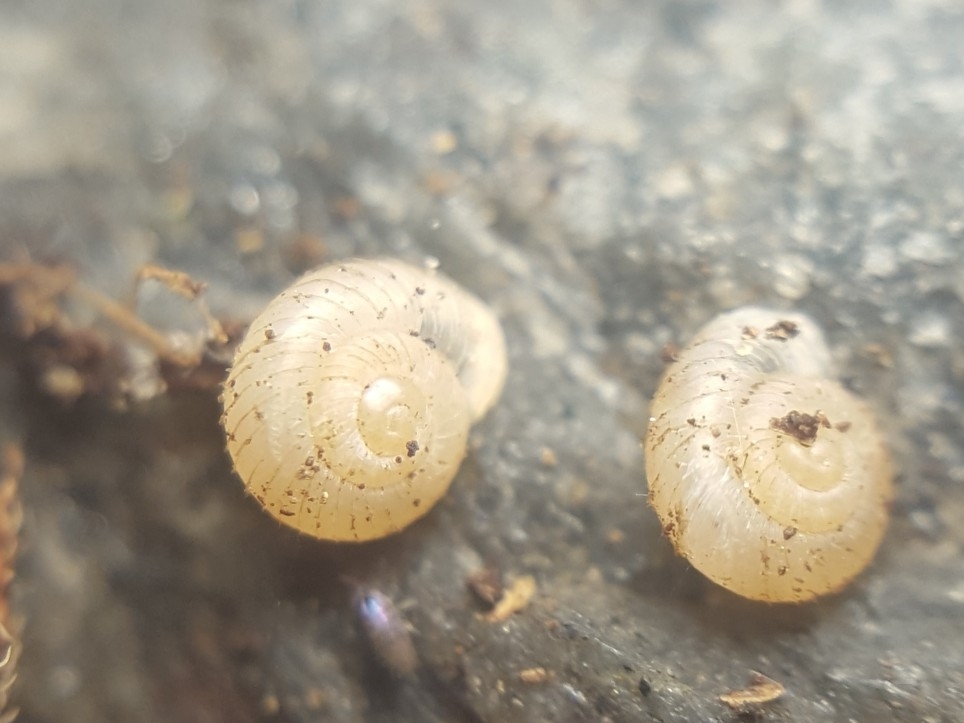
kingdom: Animalia
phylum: Mollusca
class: Gastropoda
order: Stylommatophora
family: Valloniidae
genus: Vallonia
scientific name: Vallonia costata
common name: Ribbed grass snail
